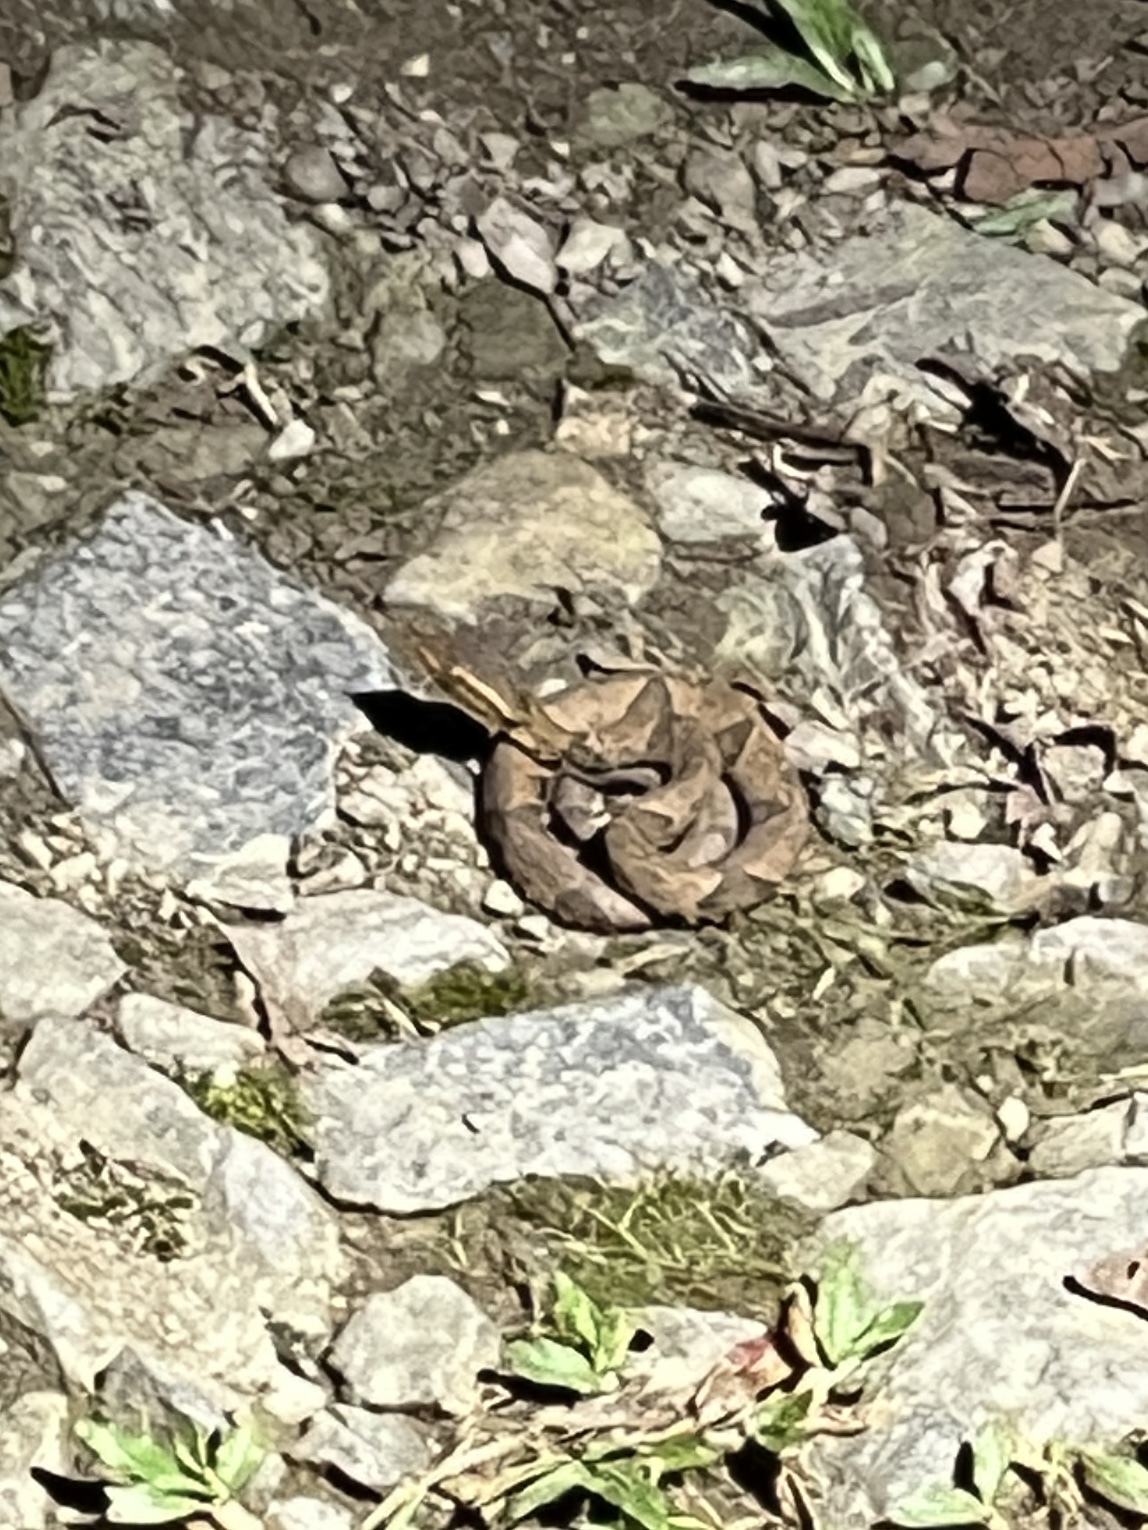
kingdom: Animalia
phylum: Chordata
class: Squamata
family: Viperidae
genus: Bothrops
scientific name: Bothrops asper
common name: Terciopelo
